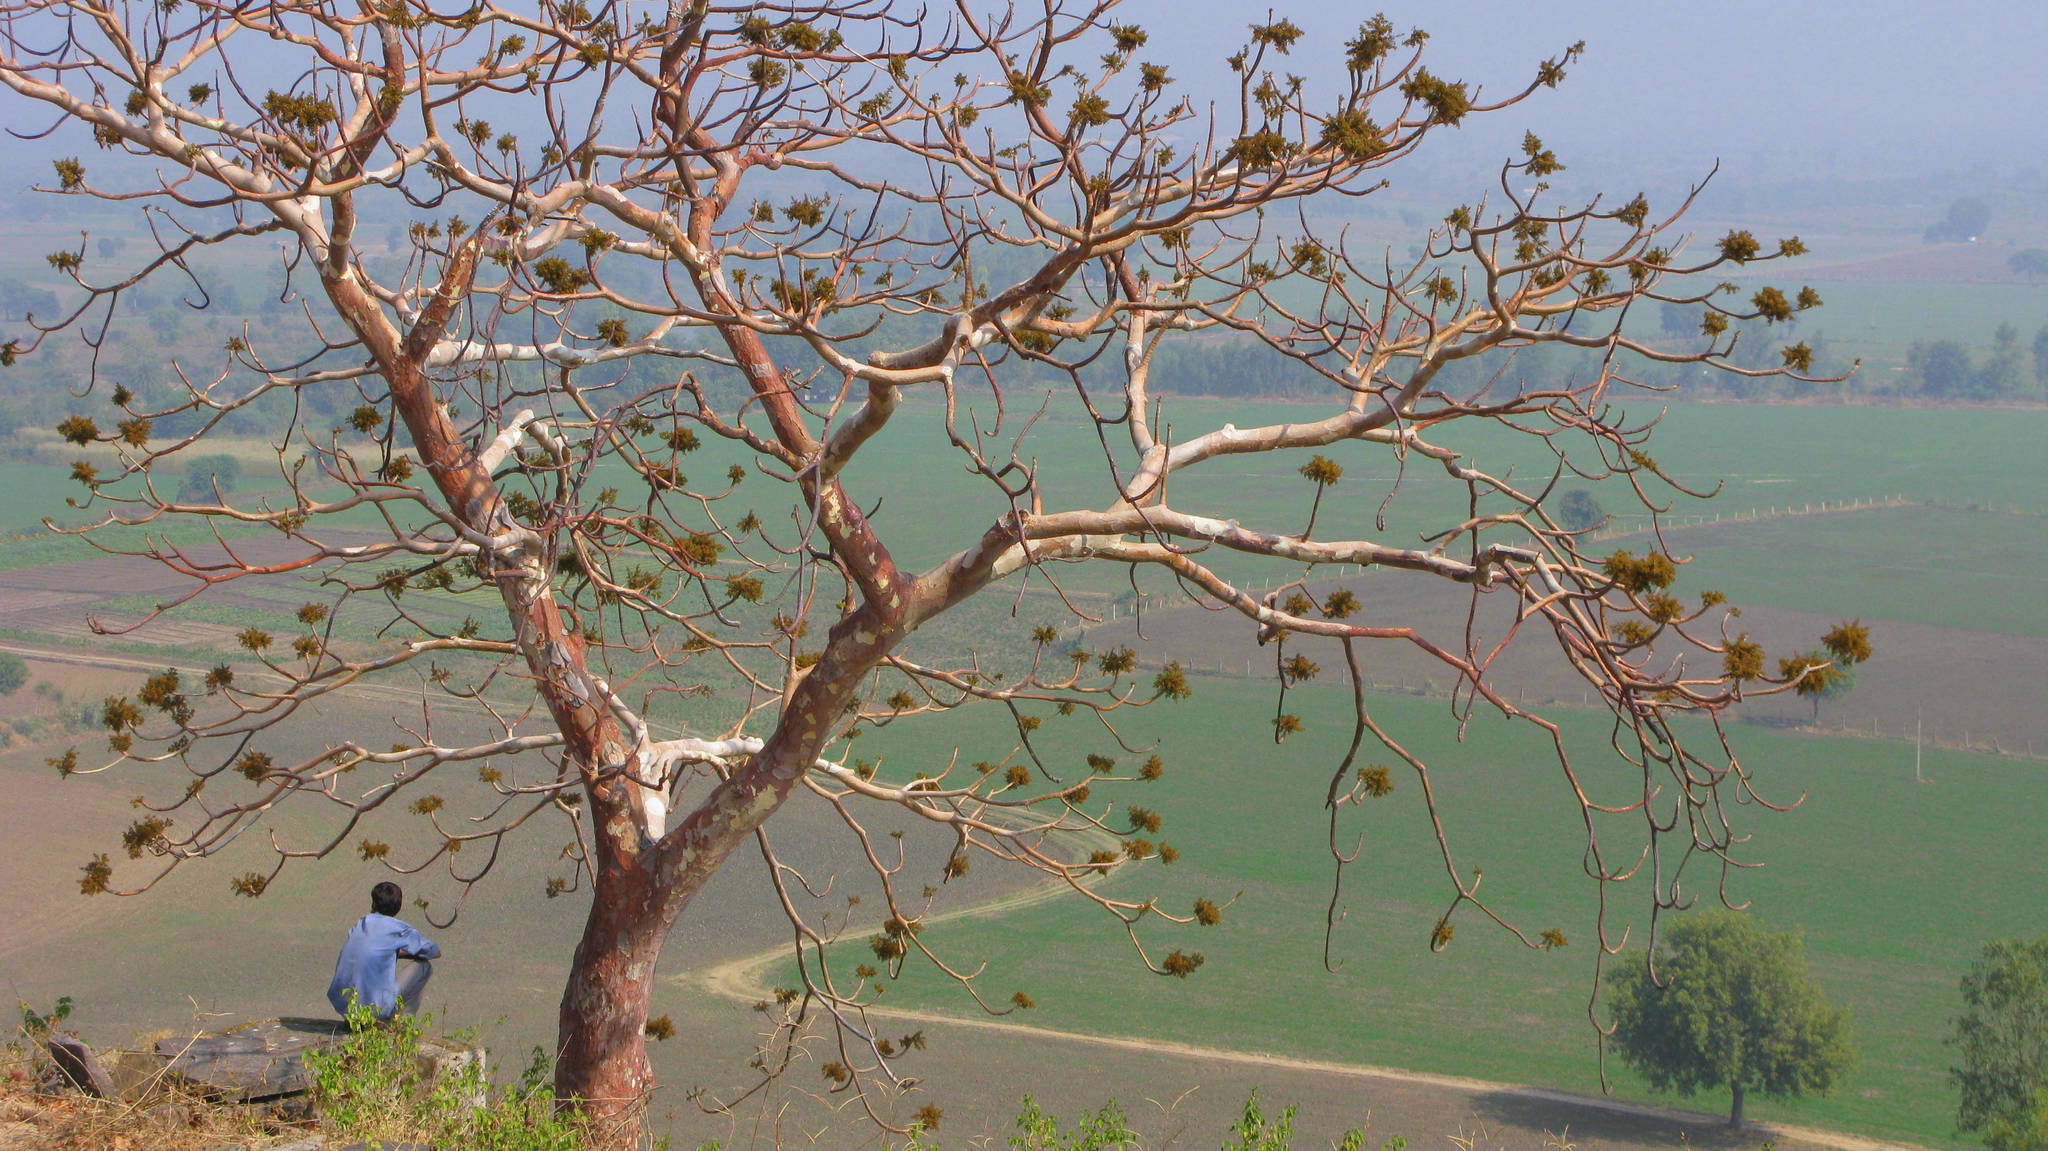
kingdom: Plantae
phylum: Tracheophyta
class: Magnoliopsida
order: Malvales
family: Malvaceae
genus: Sterculia
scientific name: Sterculia urens
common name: Indian-tragacanth
